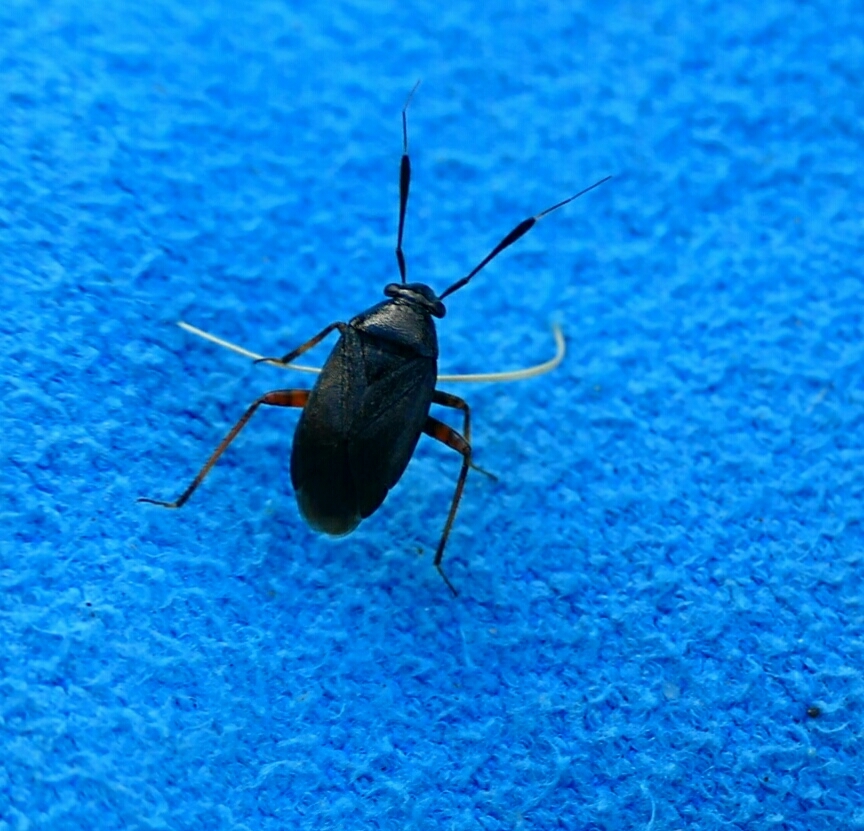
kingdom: Animalia
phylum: Arthropoda
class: Insecta
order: Hemiptera
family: Miridae
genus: Capsus
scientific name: Capsus ater
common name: Black plant bug
